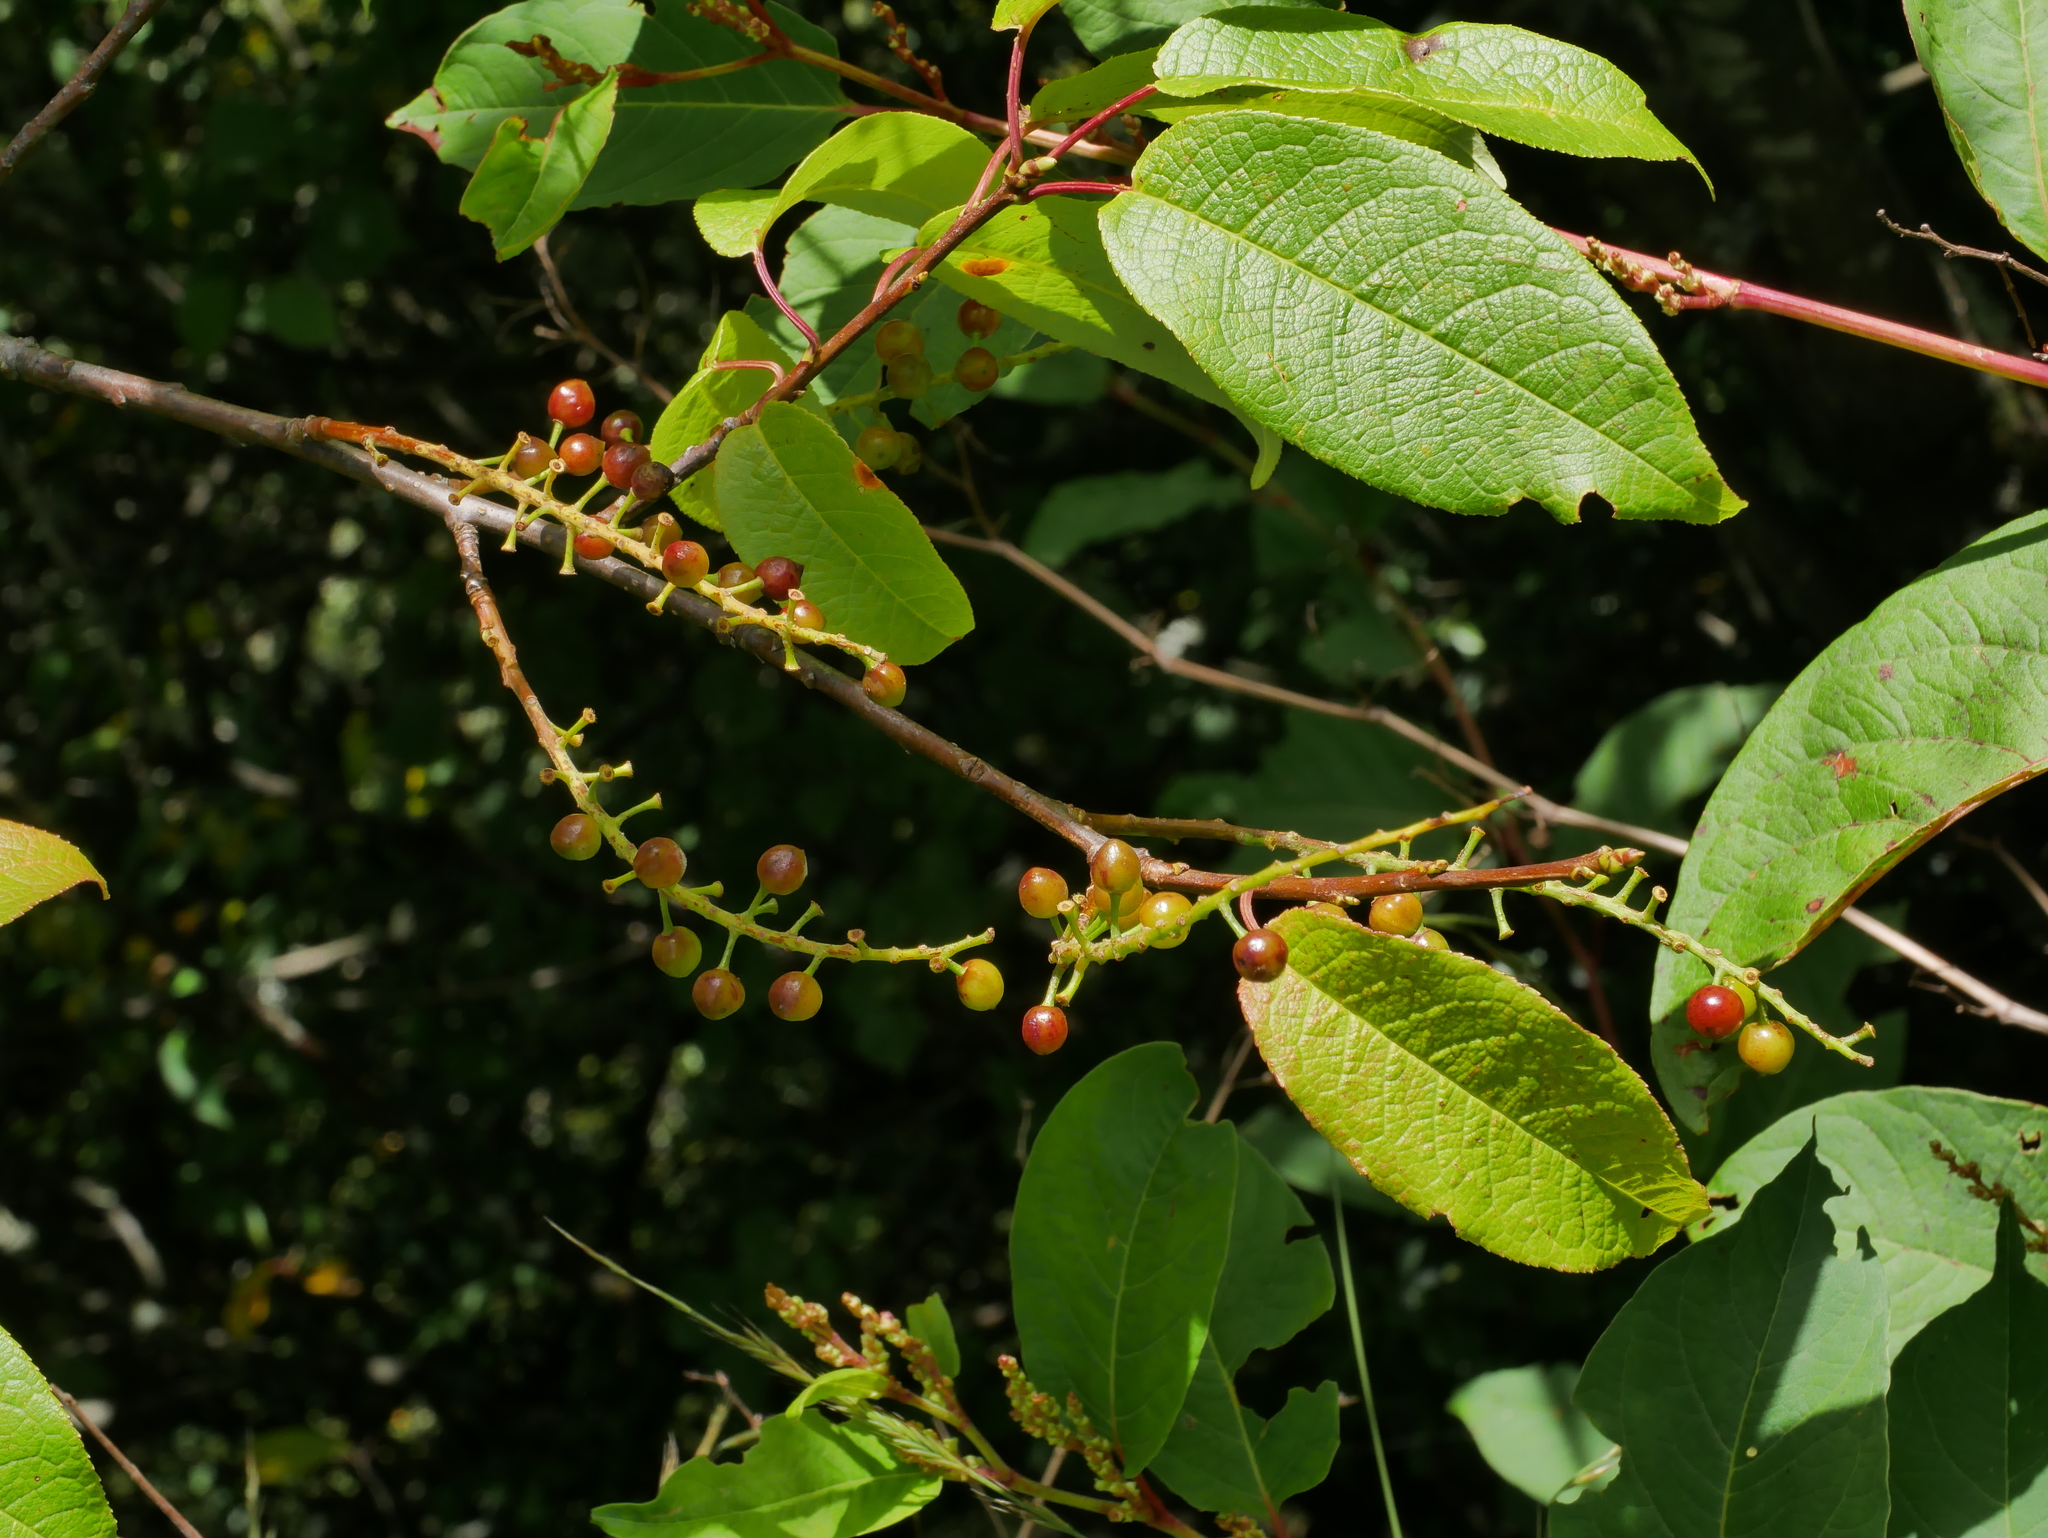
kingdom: Plantae
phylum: Tracheophyta
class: Magnoliopsida
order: Rosales
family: Rosaceae
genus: Prunus
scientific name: Prunus obtusata
